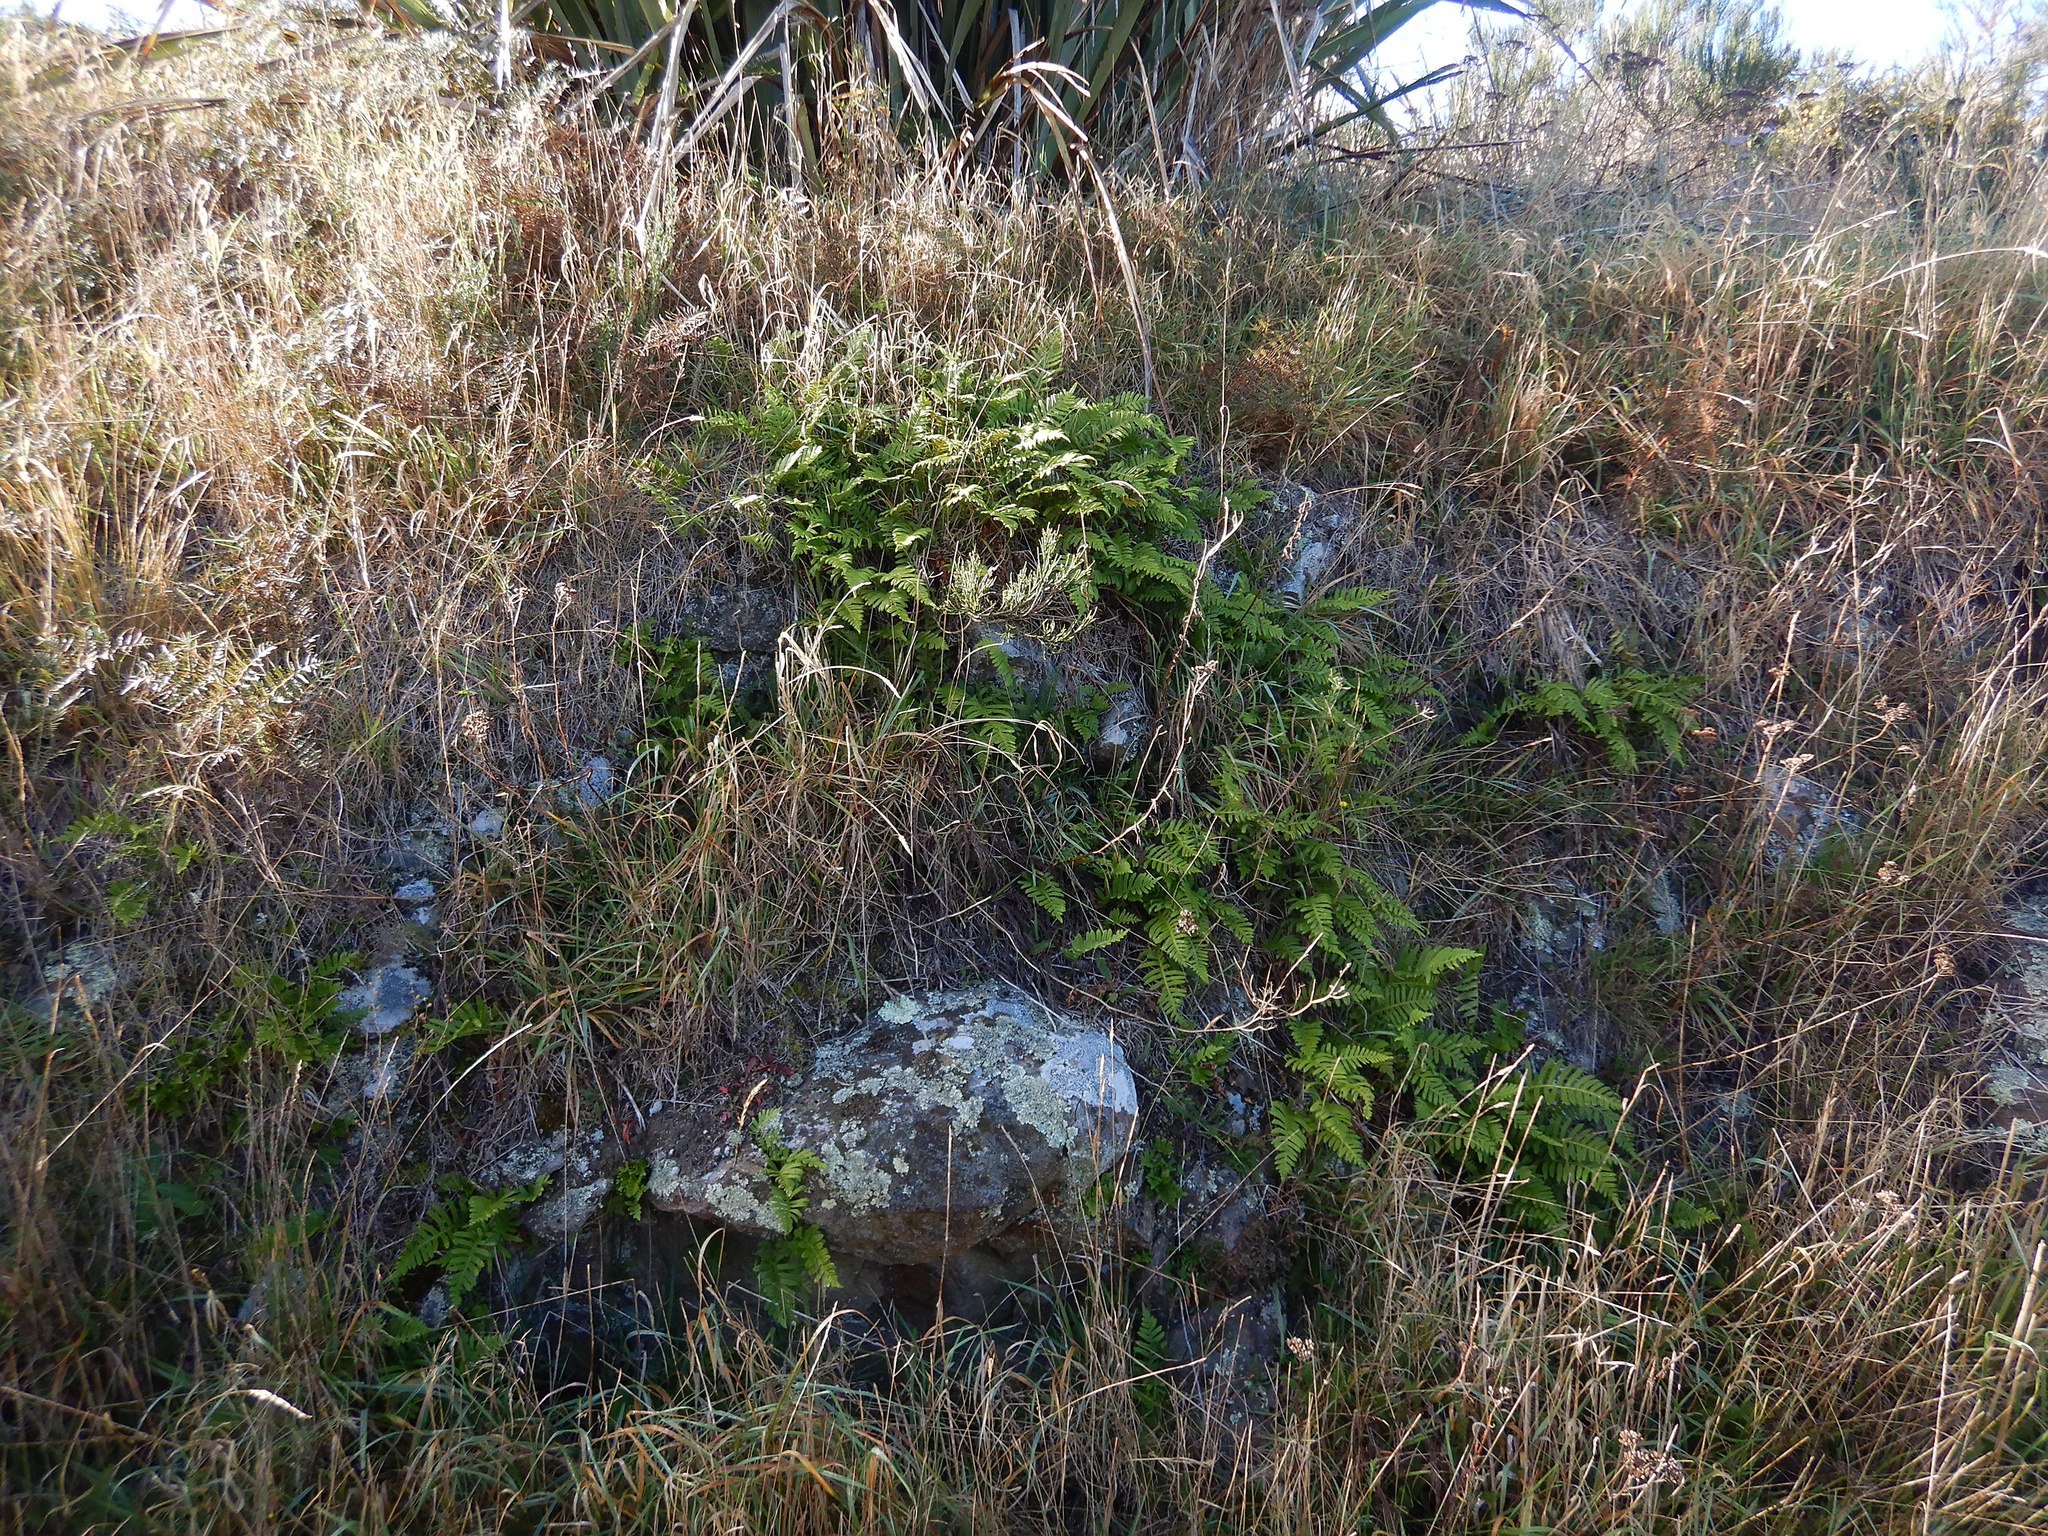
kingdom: Plantae
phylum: Tracheophyta
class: Polypodiopsida
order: Polypodiales
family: Polypodiaceae
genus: Polypodium
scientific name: Polypodium vulgare
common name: Common polypody
